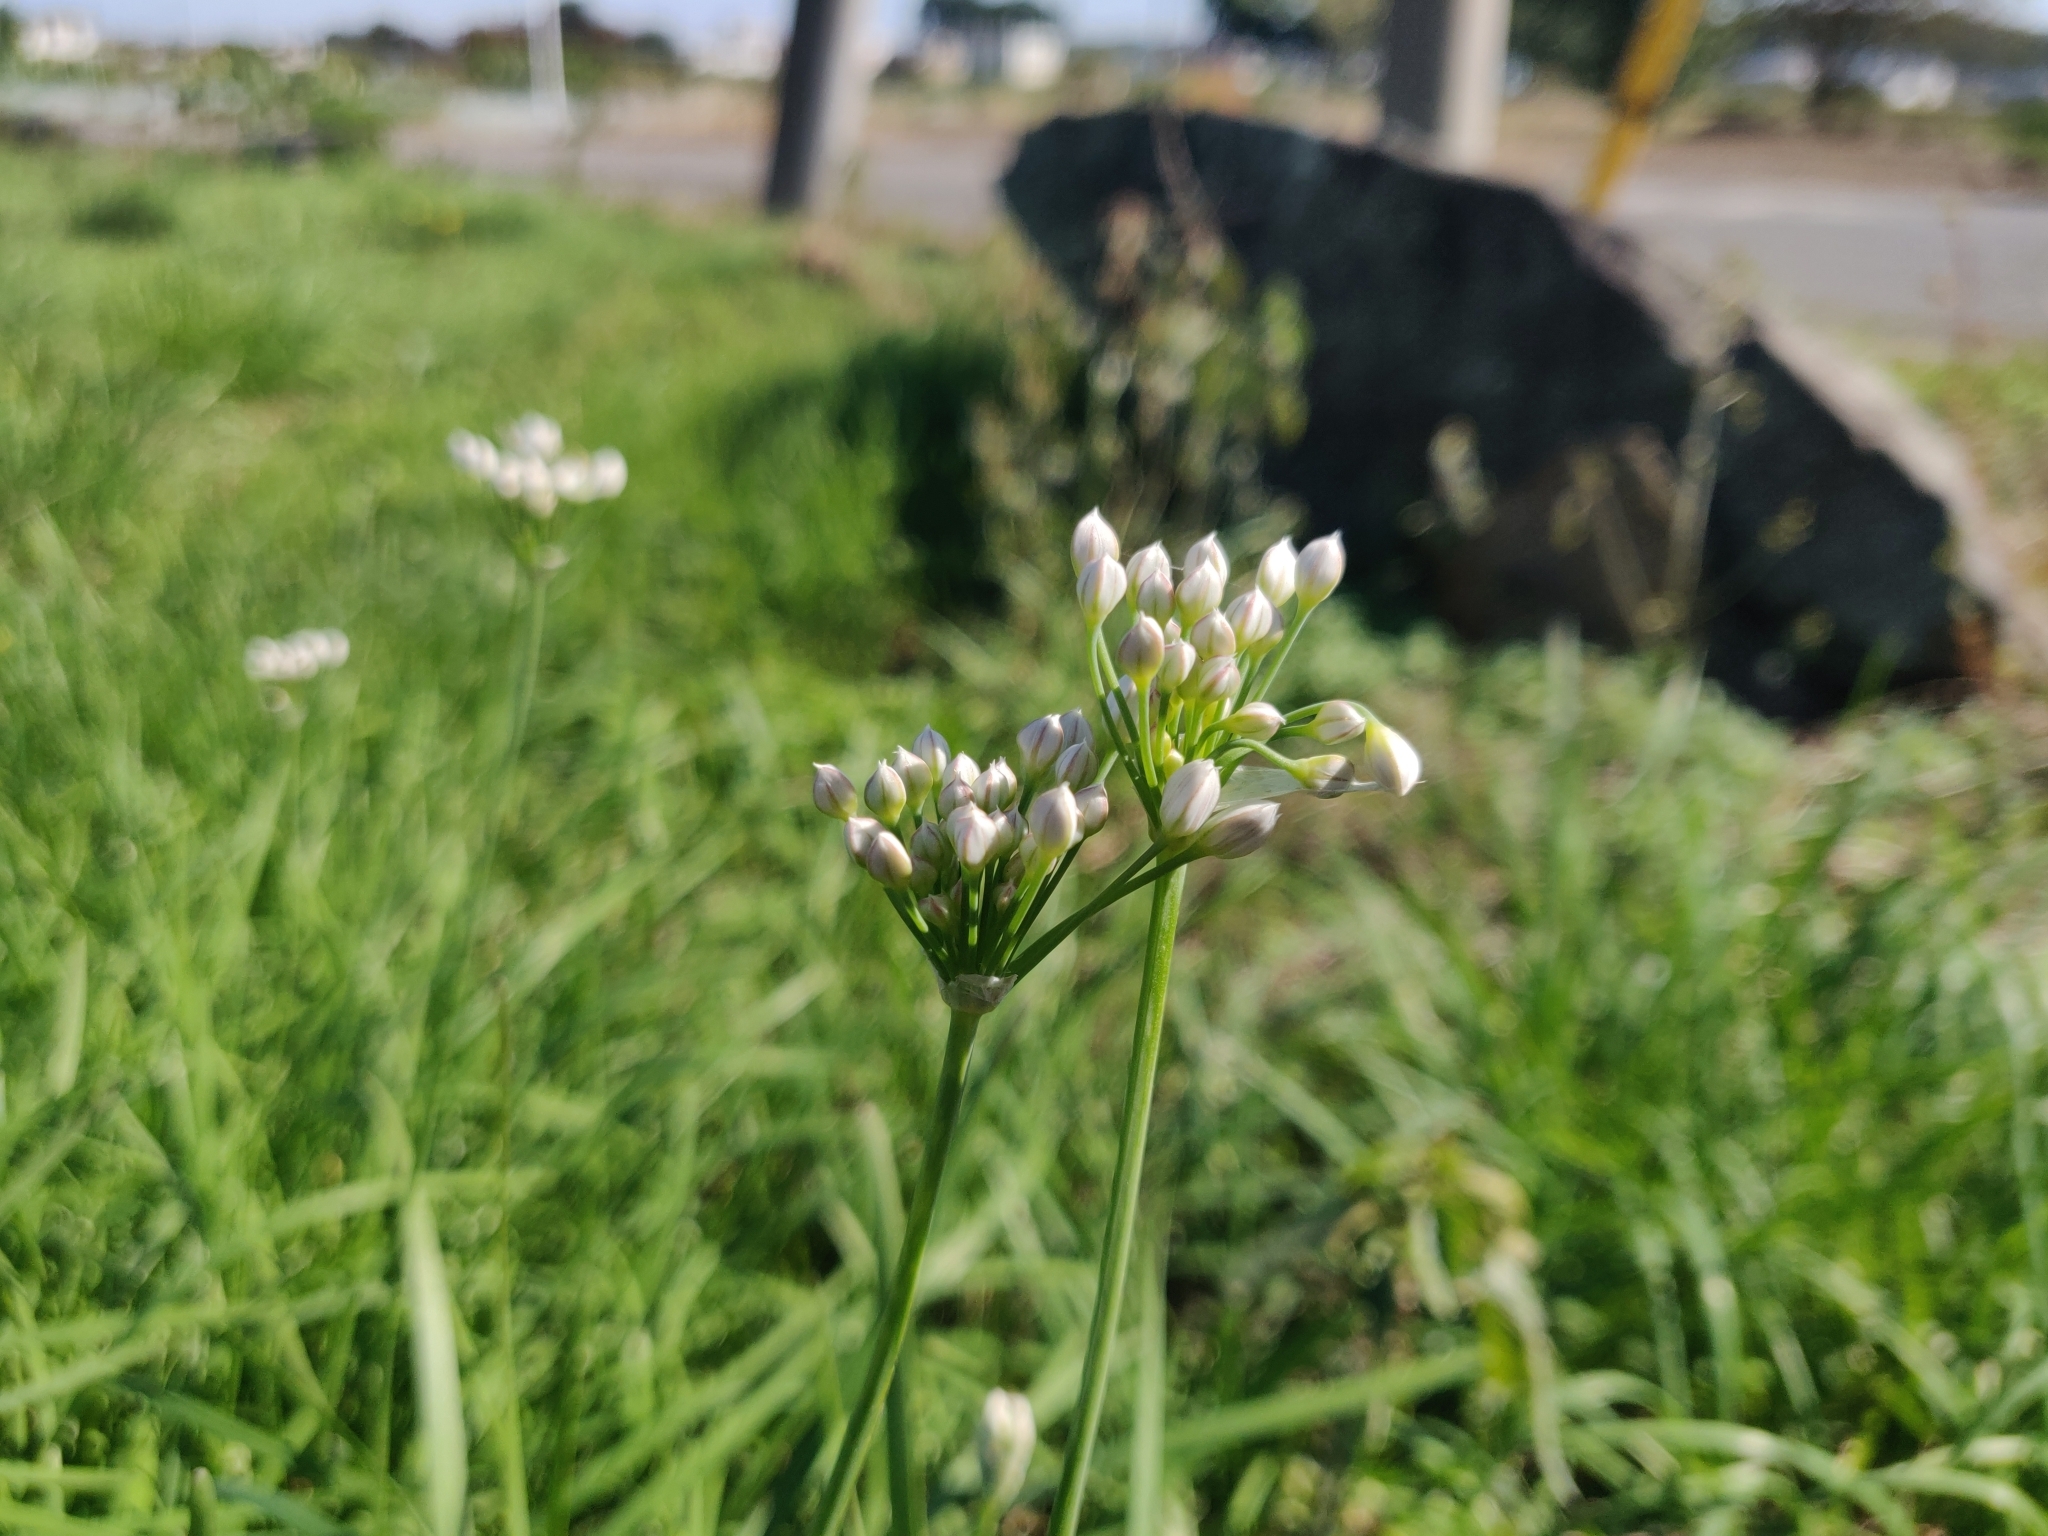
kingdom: Plantae
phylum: Tracheophyta
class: Liliopsida
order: Asparagales
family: Amaryllidaceae
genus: Allium
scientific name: Allium tuberosum
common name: Chinese chives
